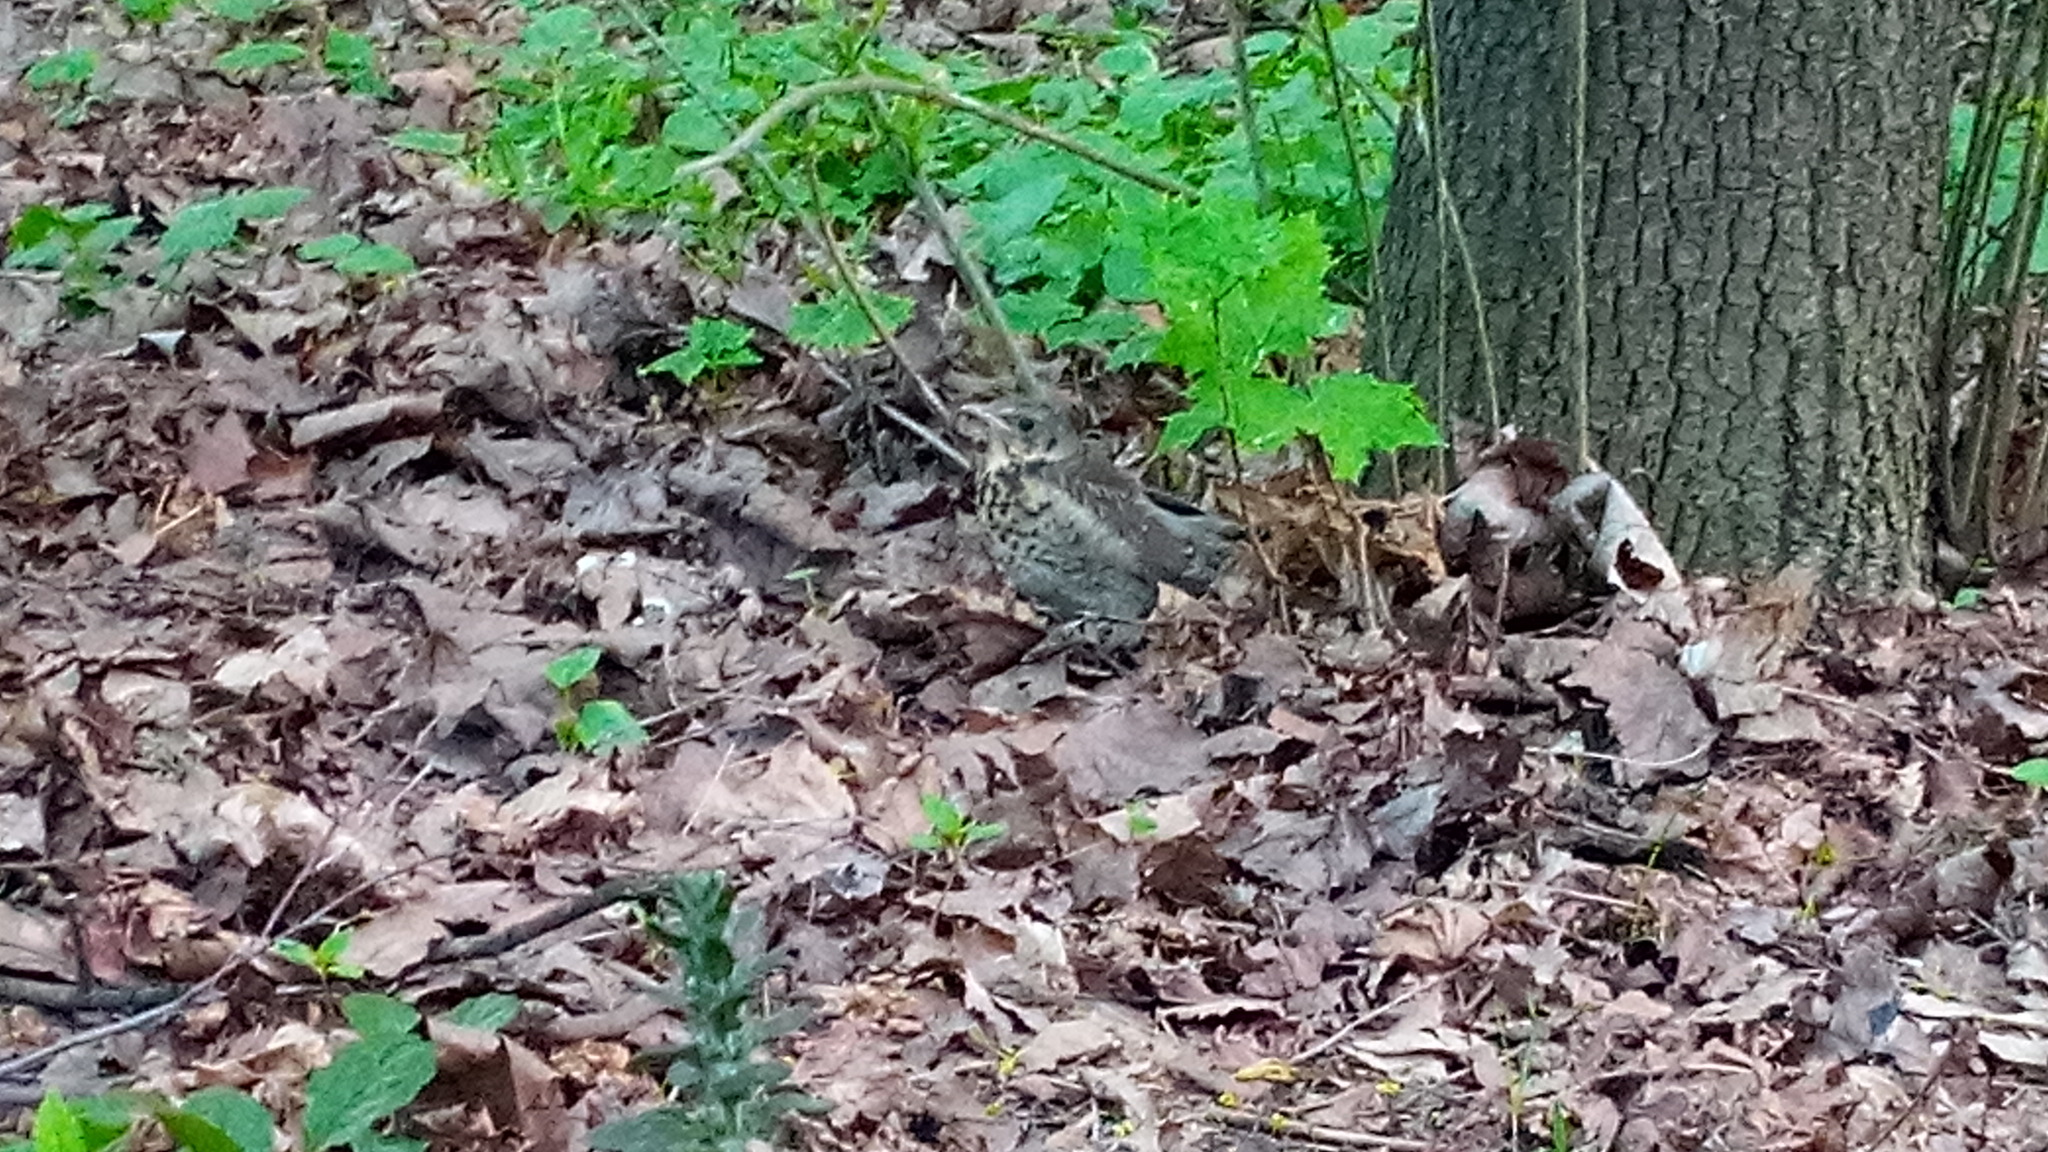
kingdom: Animalia
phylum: Chordata
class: Aves
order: Passeriformes
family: Turdidae
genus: Turdus
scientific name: Turdus pilaris
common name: Fieldfare
